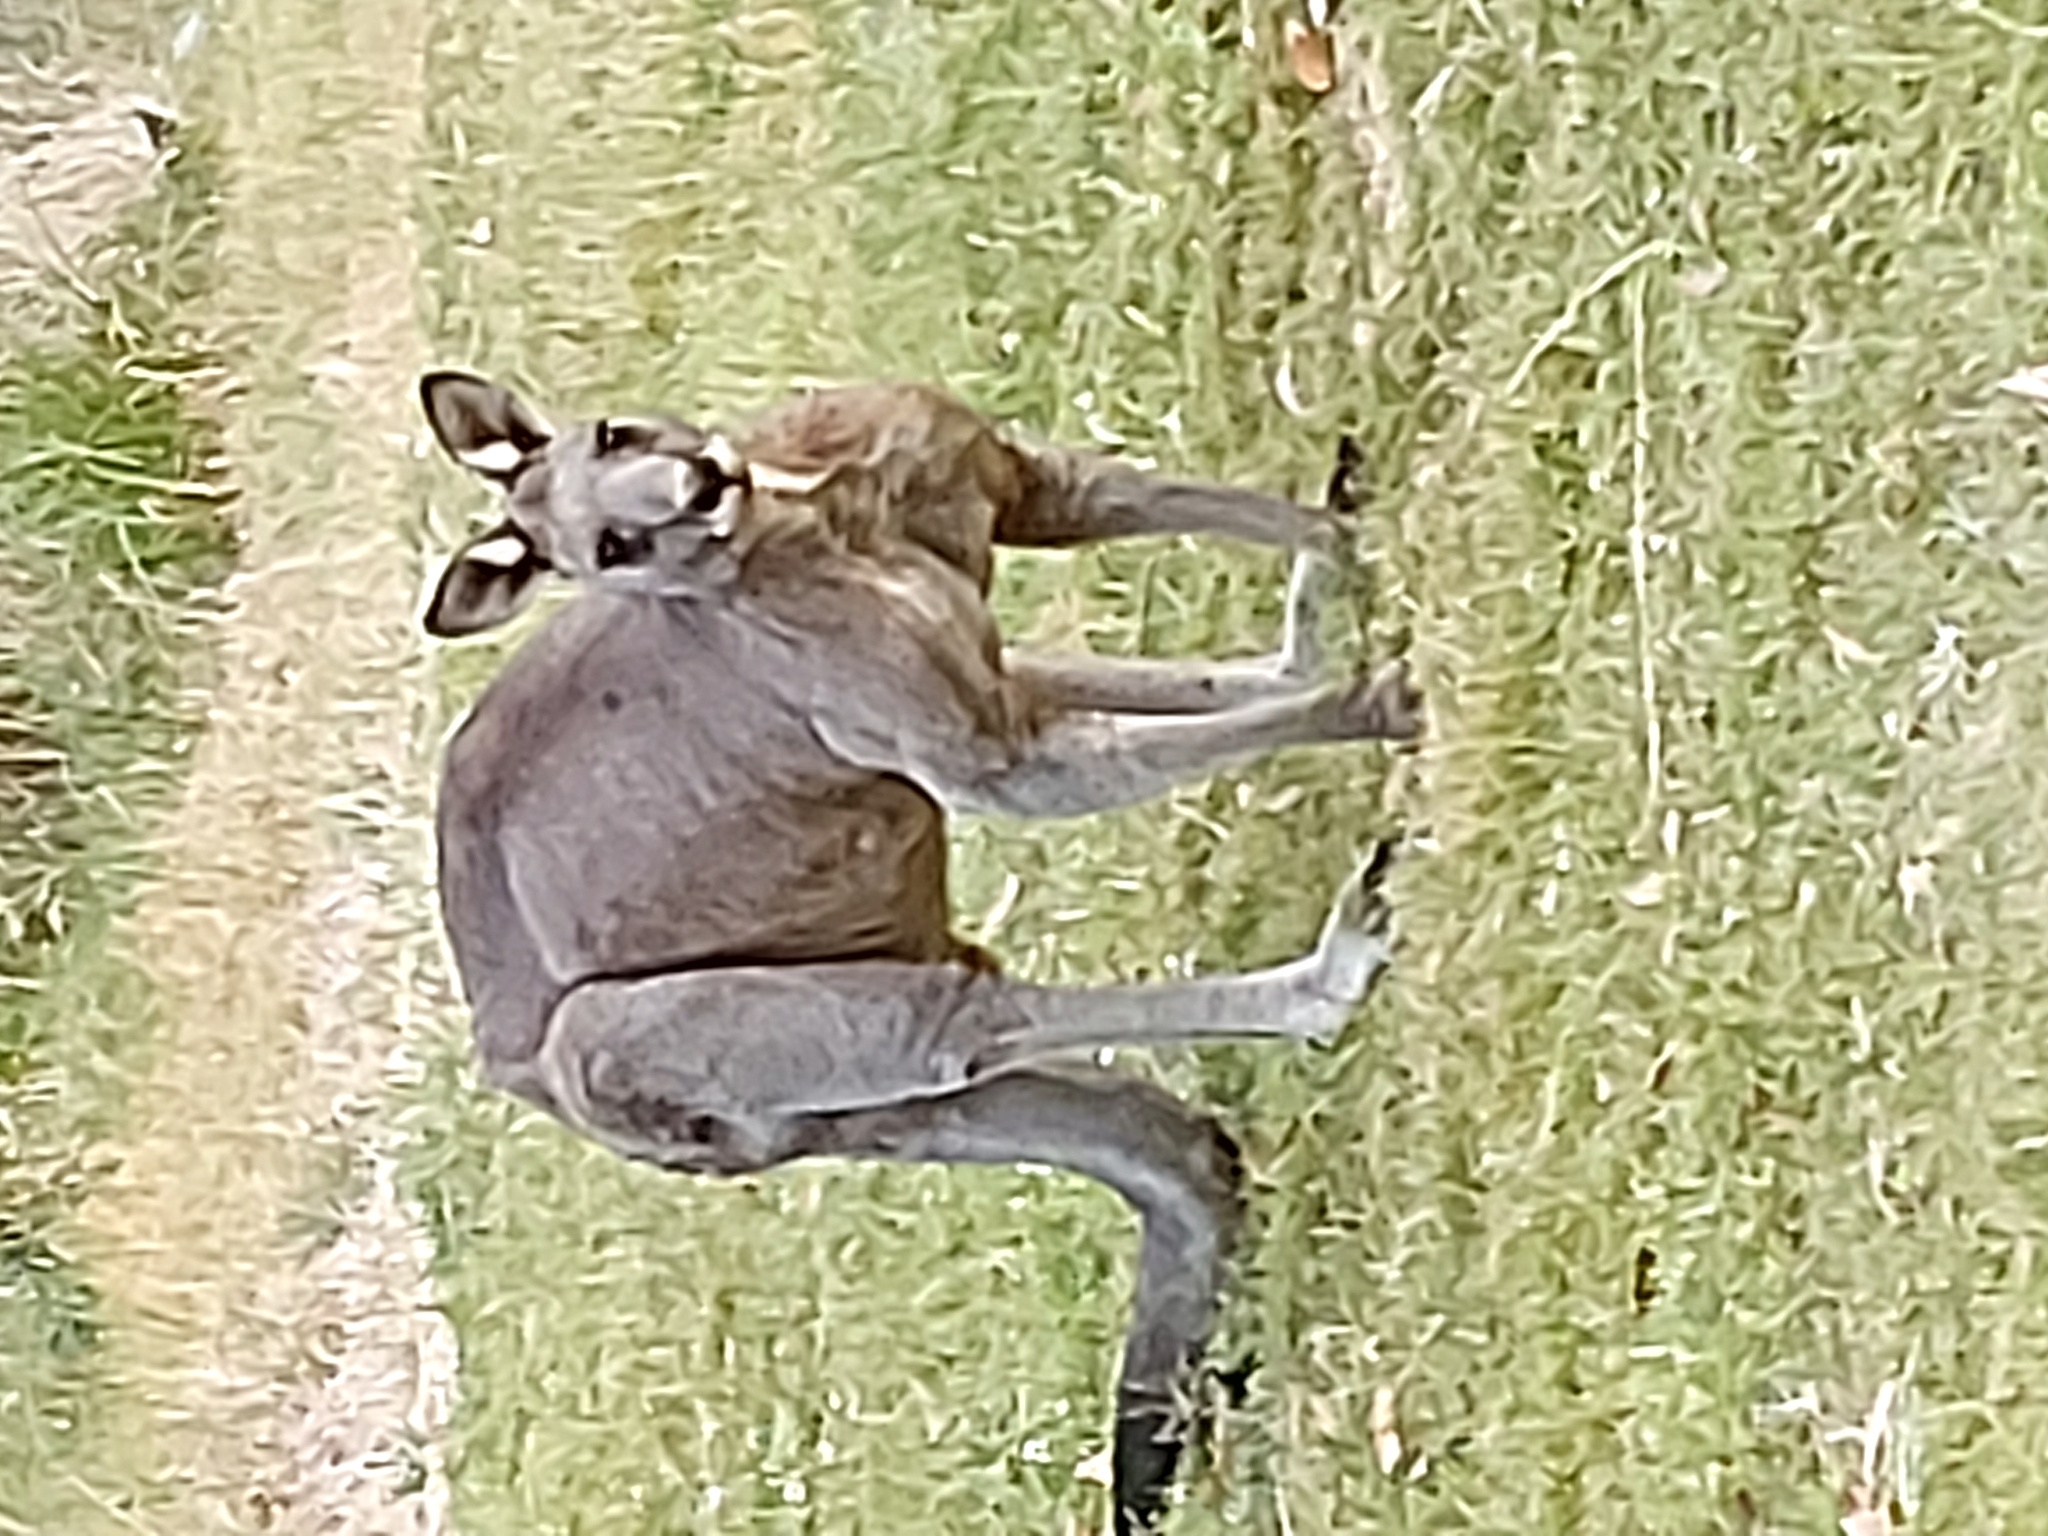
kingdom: Animalia
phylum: Chordata
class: Mammalia
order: Diprotodontia
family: Macropodidae
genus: Macropus
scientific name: Macropus giganteus
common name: Eastern grey kangaroo
